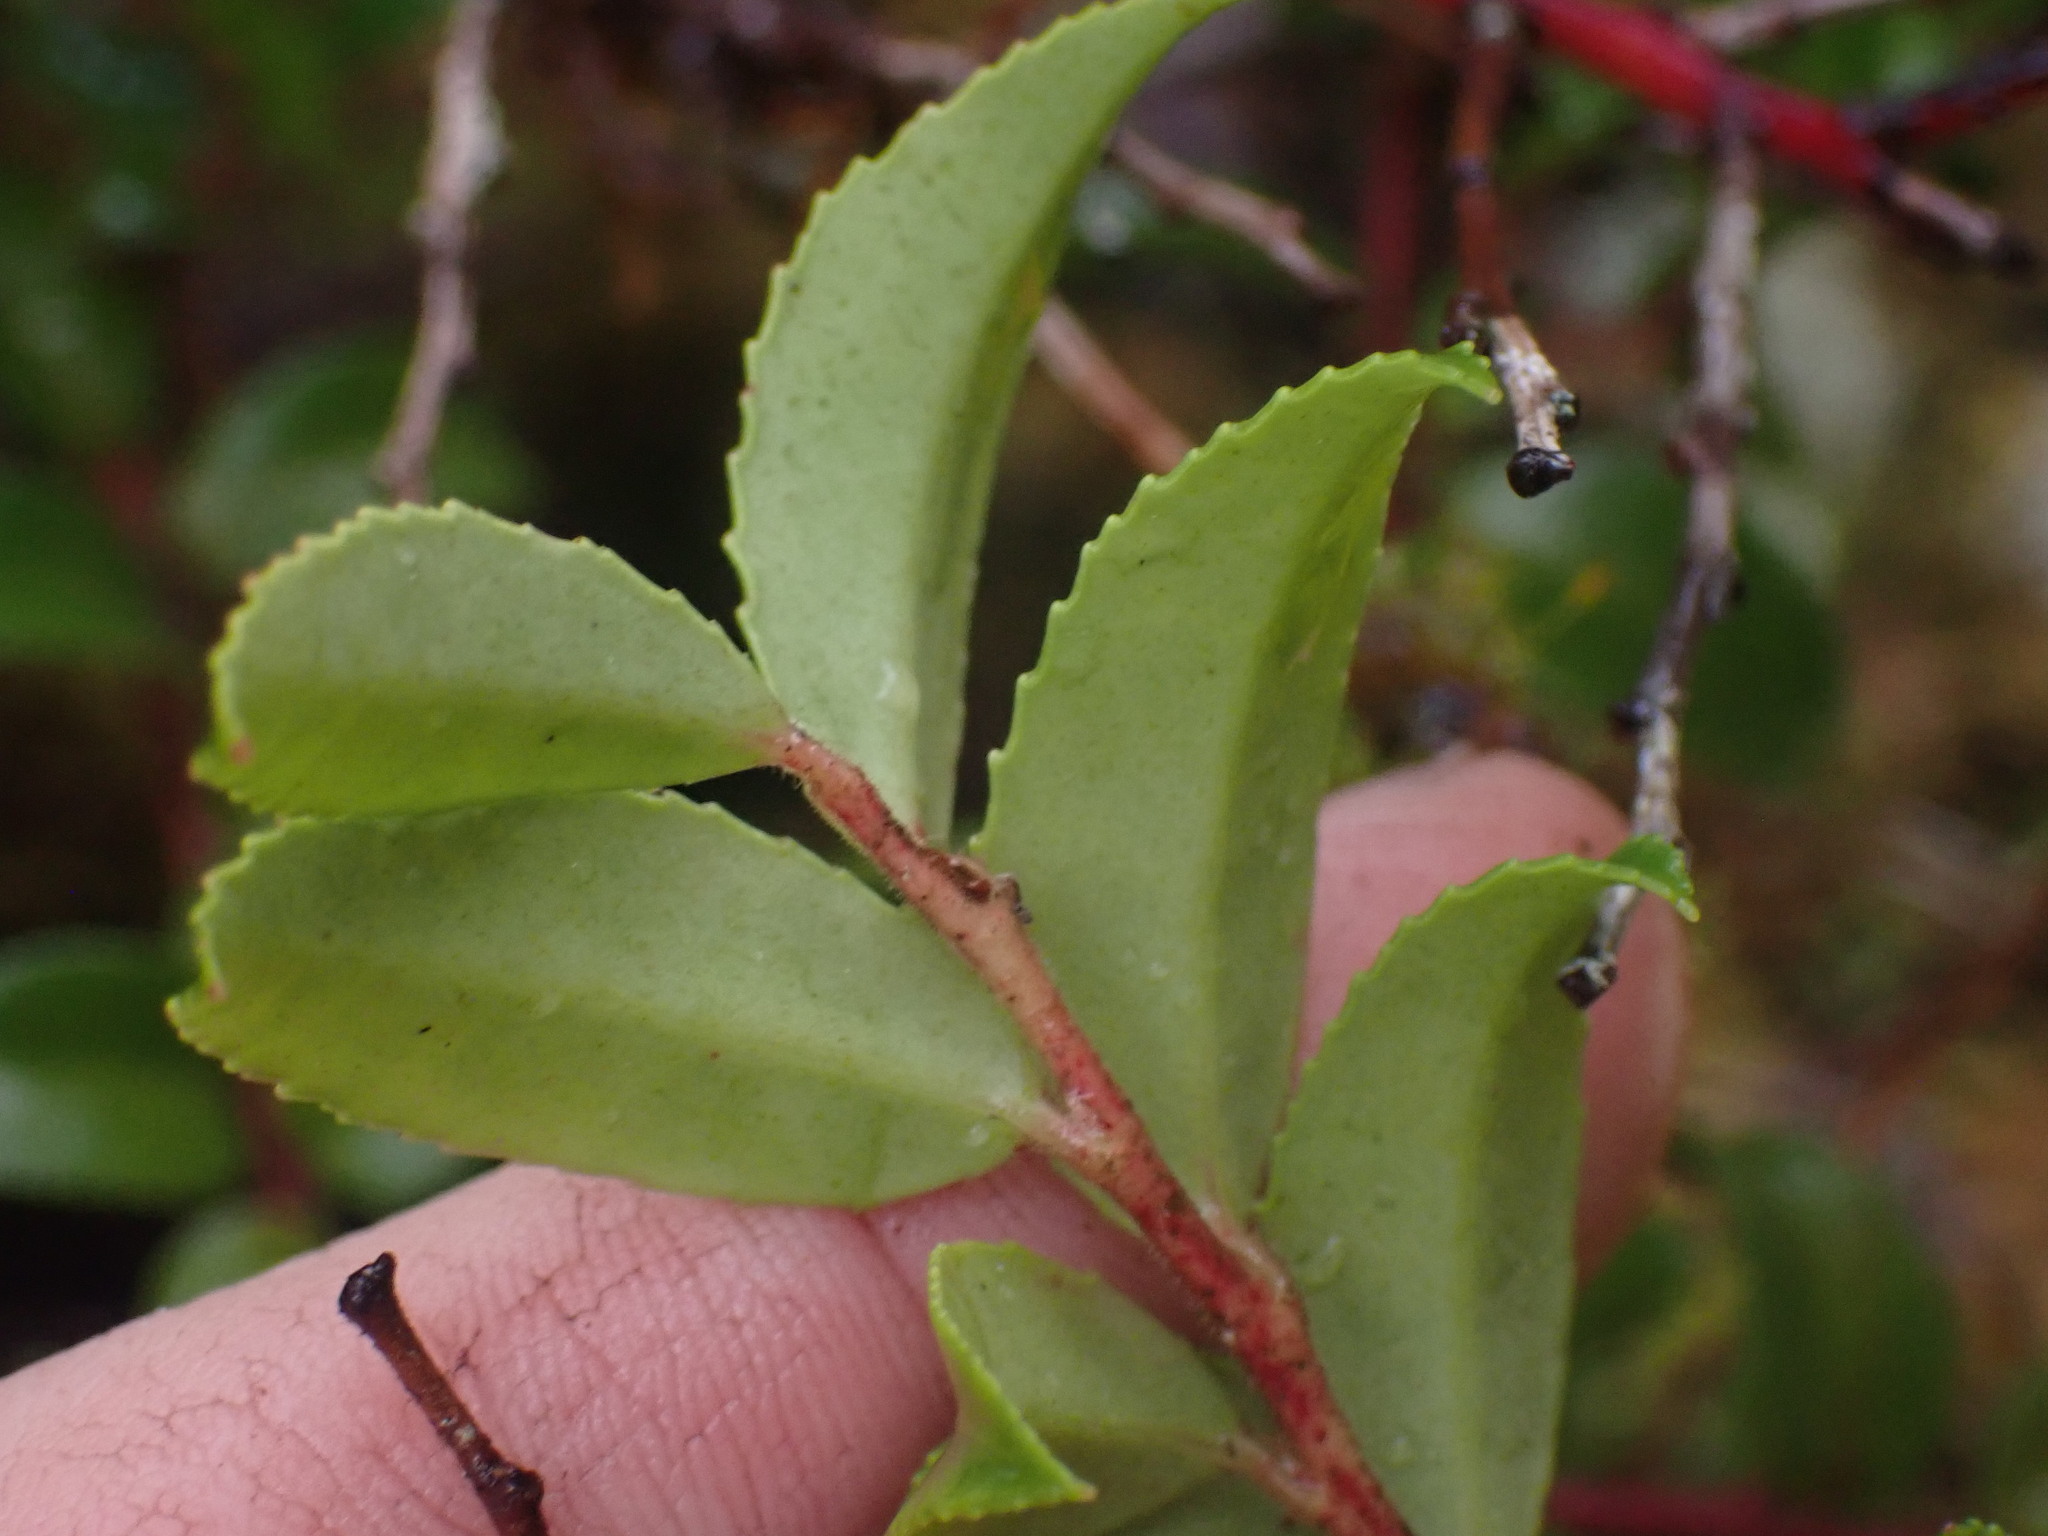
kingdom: Plantae
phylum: Tracheophyta
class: Magnoliopsida
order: Ericales
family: Ericaceae
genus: Vaccinium
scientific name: Vaccinium ovatum
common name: California-huckleberry
